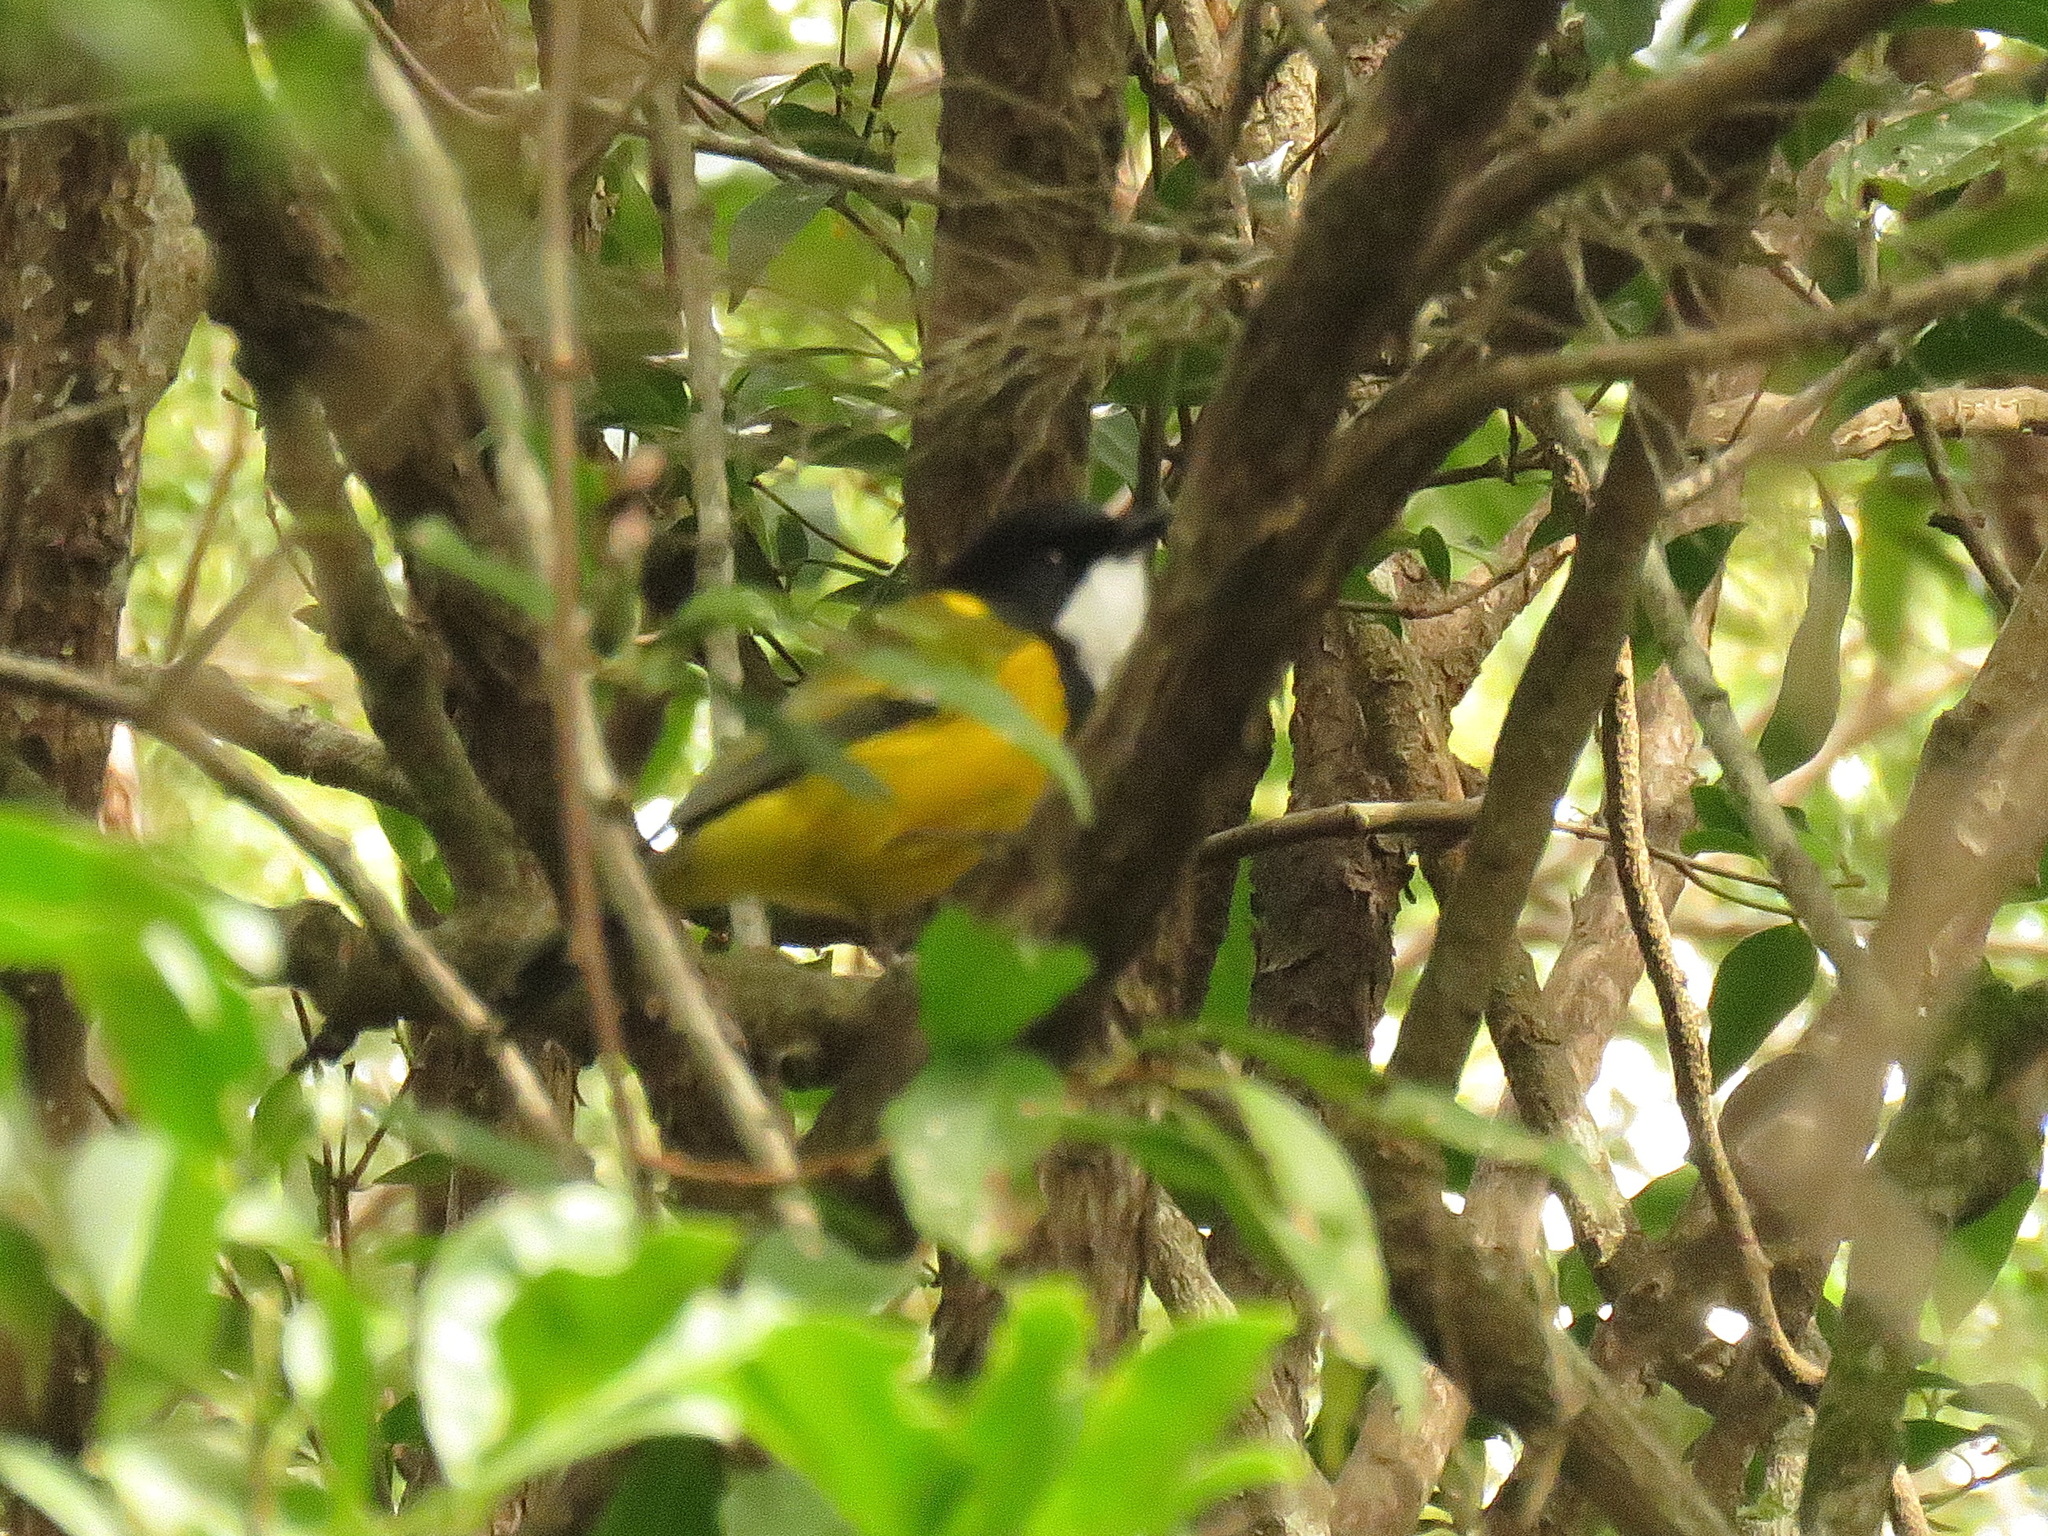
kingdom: Animalia
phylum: Chordata
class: Aves
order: Passeriformes
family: Pachycephalidae
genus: Pachycephala
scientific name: Pachycephala pectoralis
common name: Australian golden whistler
